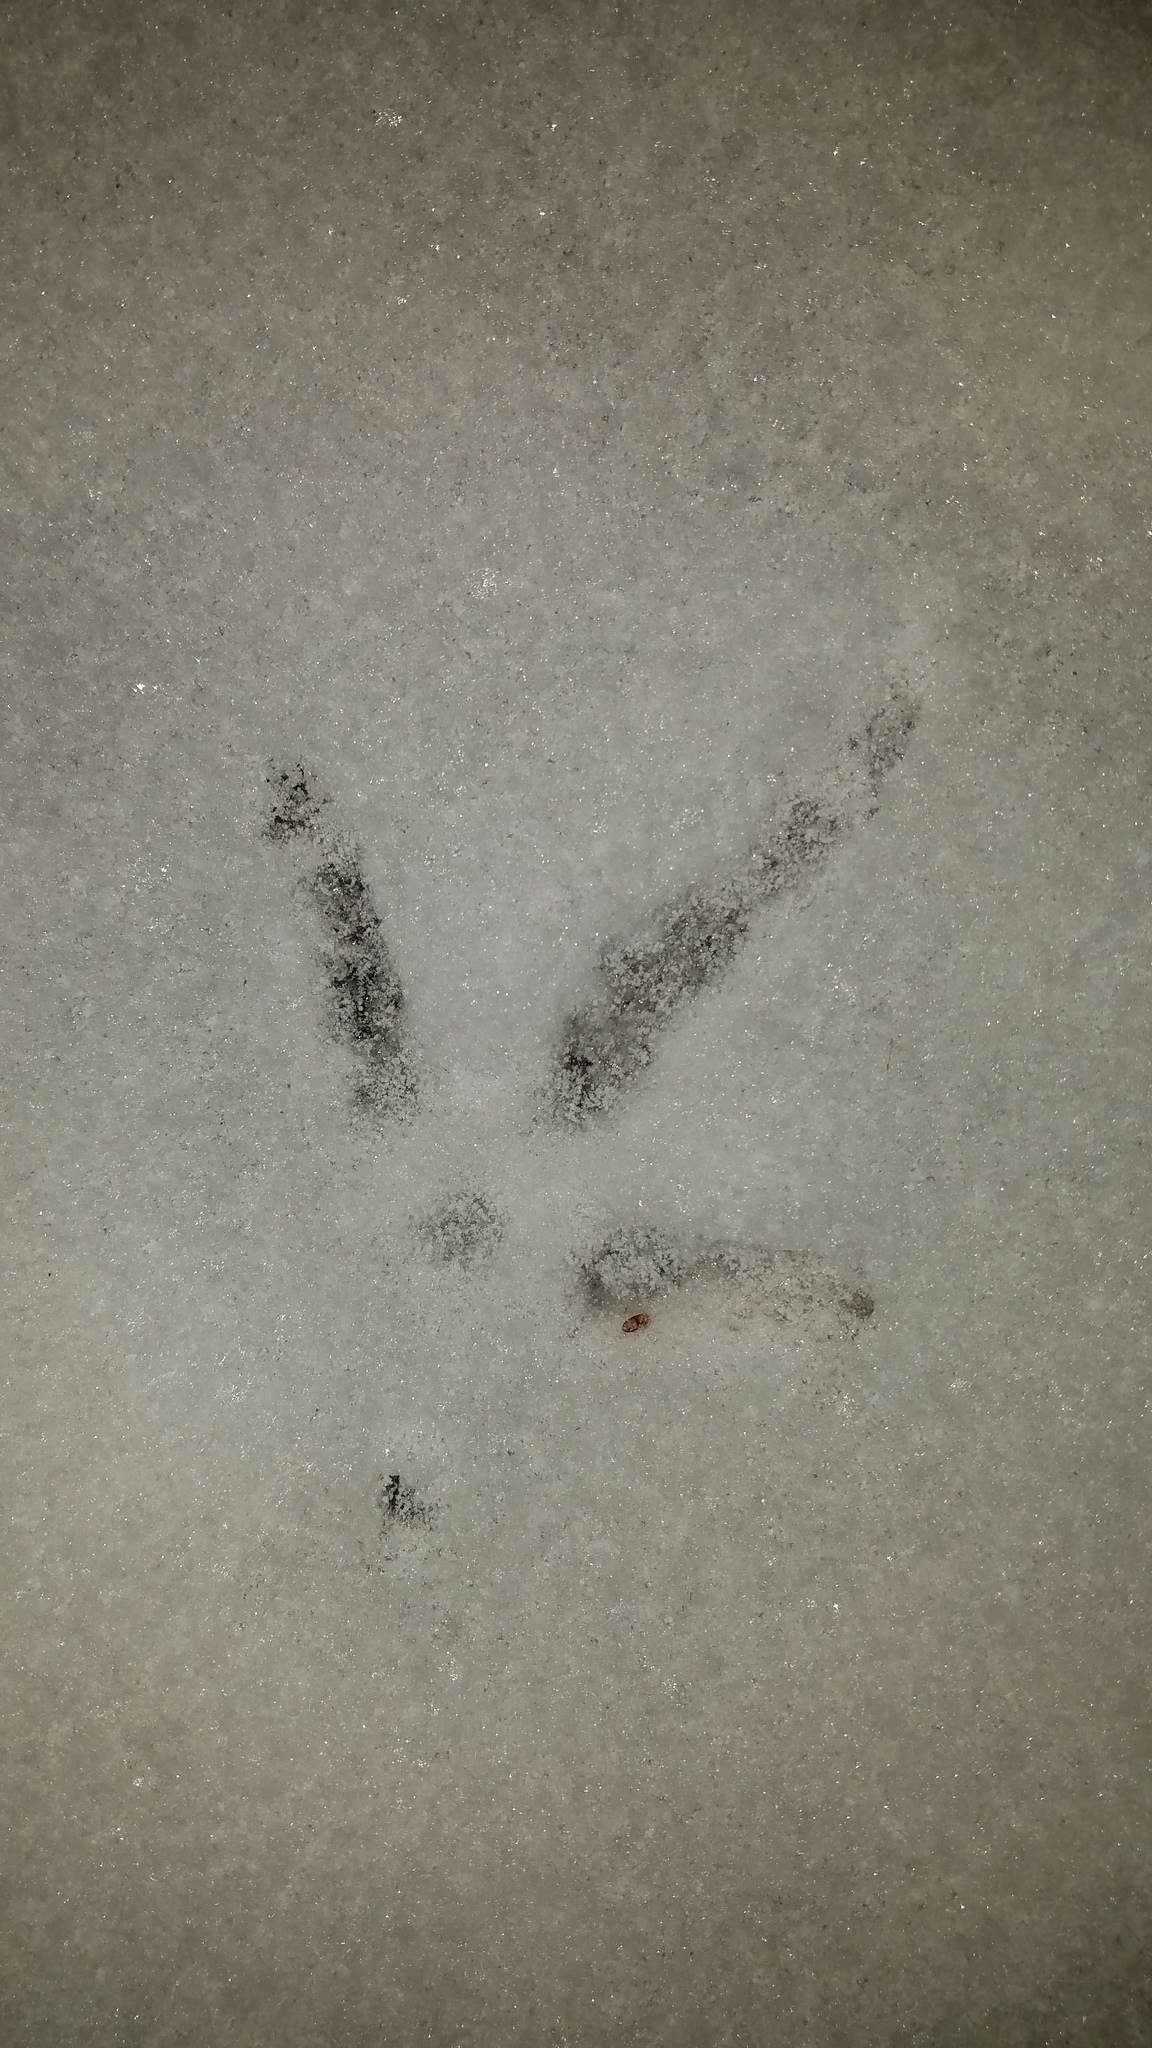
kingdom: Animalia
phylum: Chordata
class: Aves
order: Galliformes
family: Phasianidae
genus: Meleagris
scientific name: Meleagris gallopavo
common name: Wild turkey
